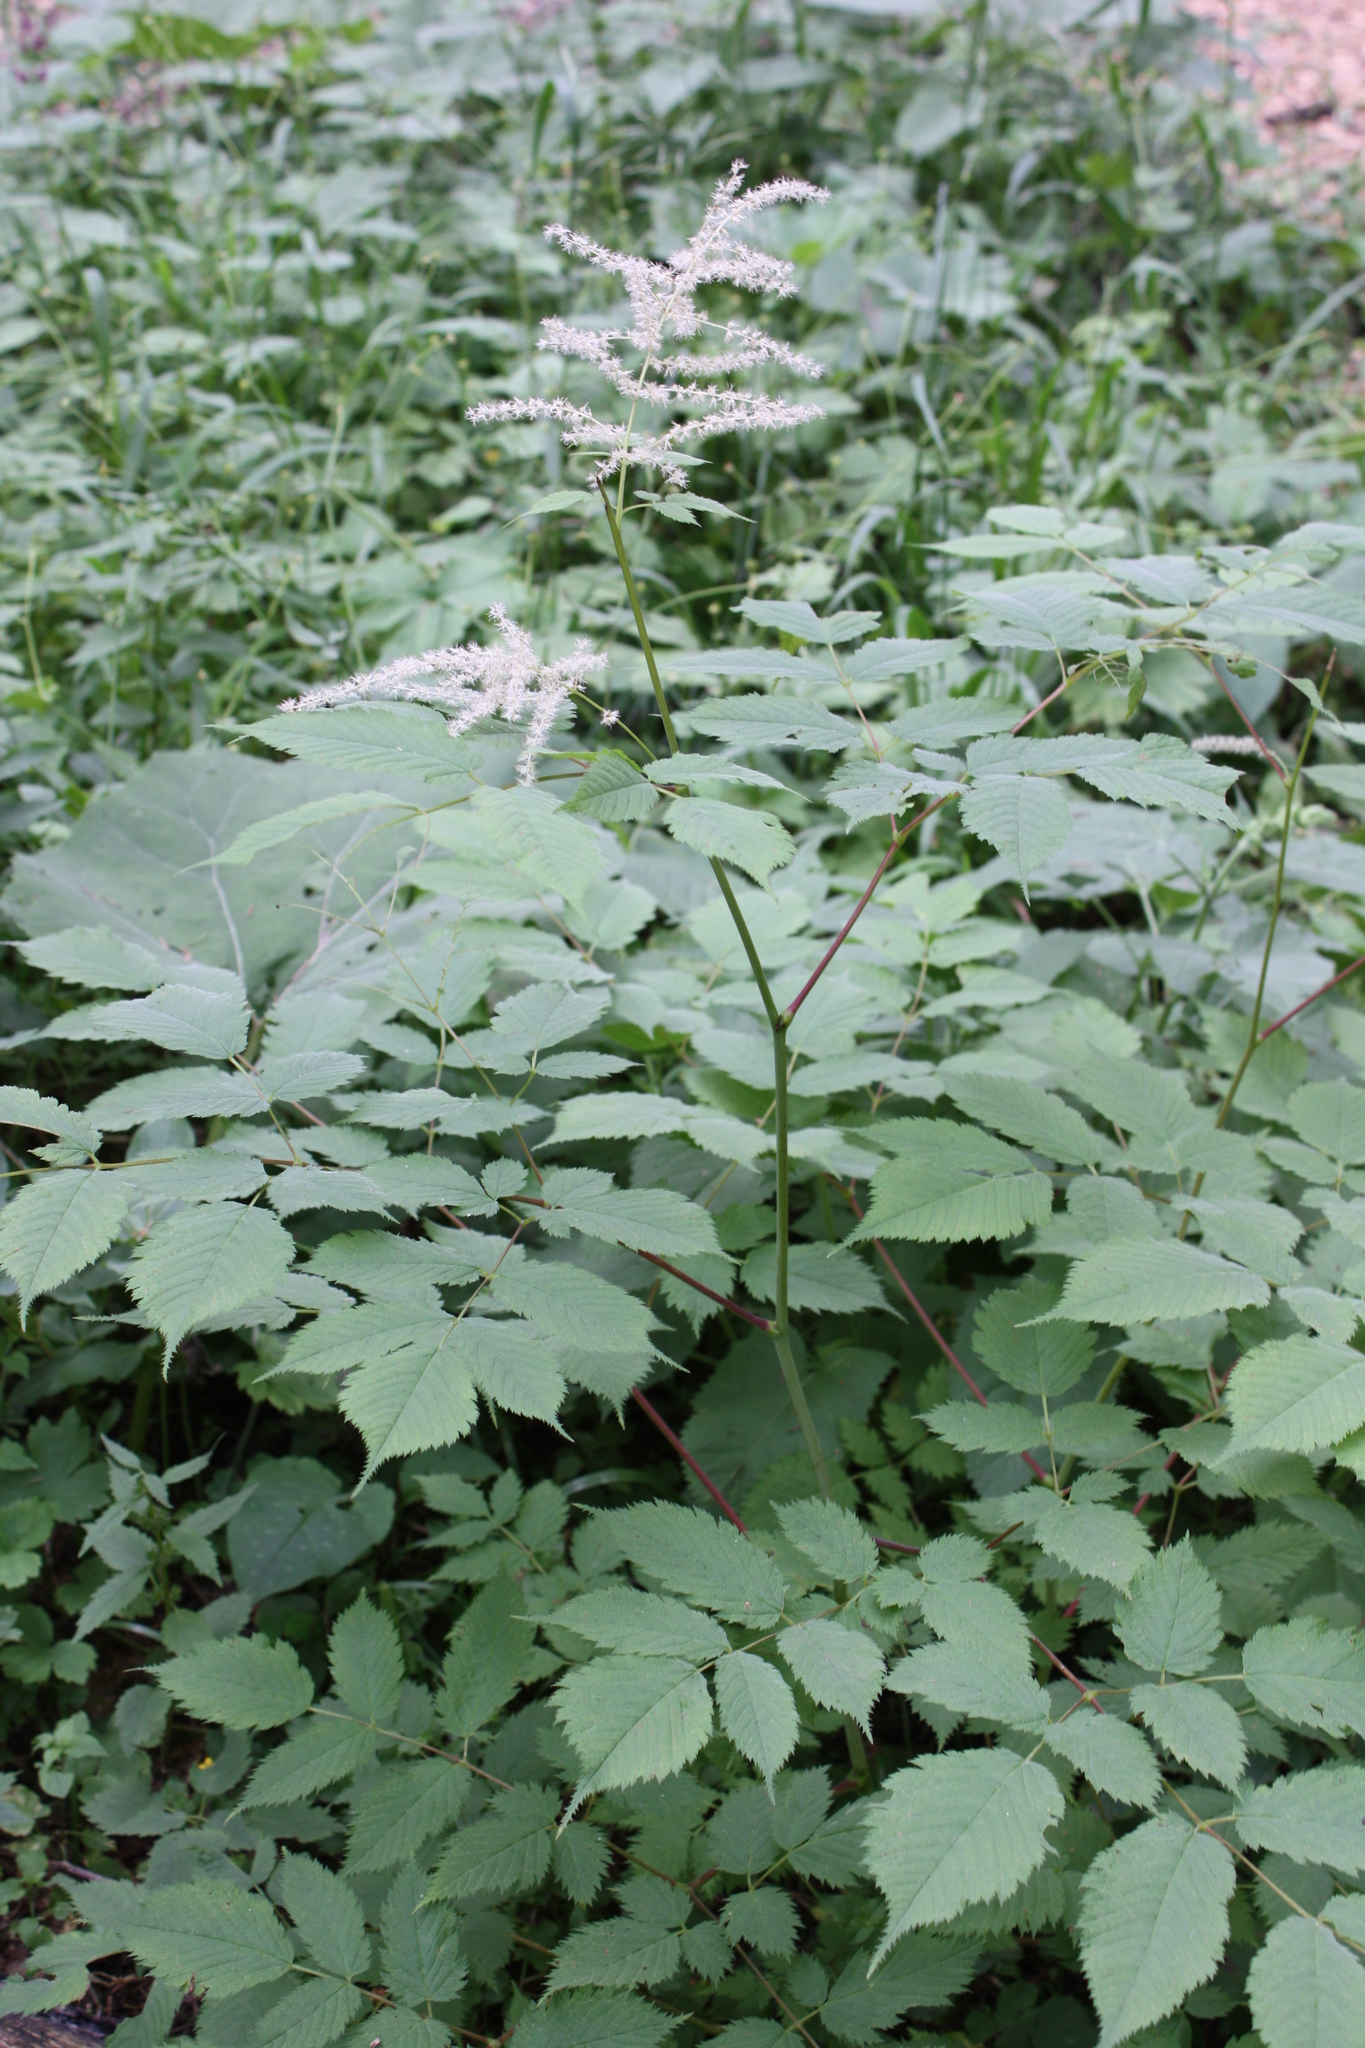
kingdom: Plantae
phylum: Tracheophyta
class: Magnoliopsida
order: Rosales
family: Rosaceae
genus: Aruncus
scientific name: Aruncus dioicus
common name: Buck's-beard
